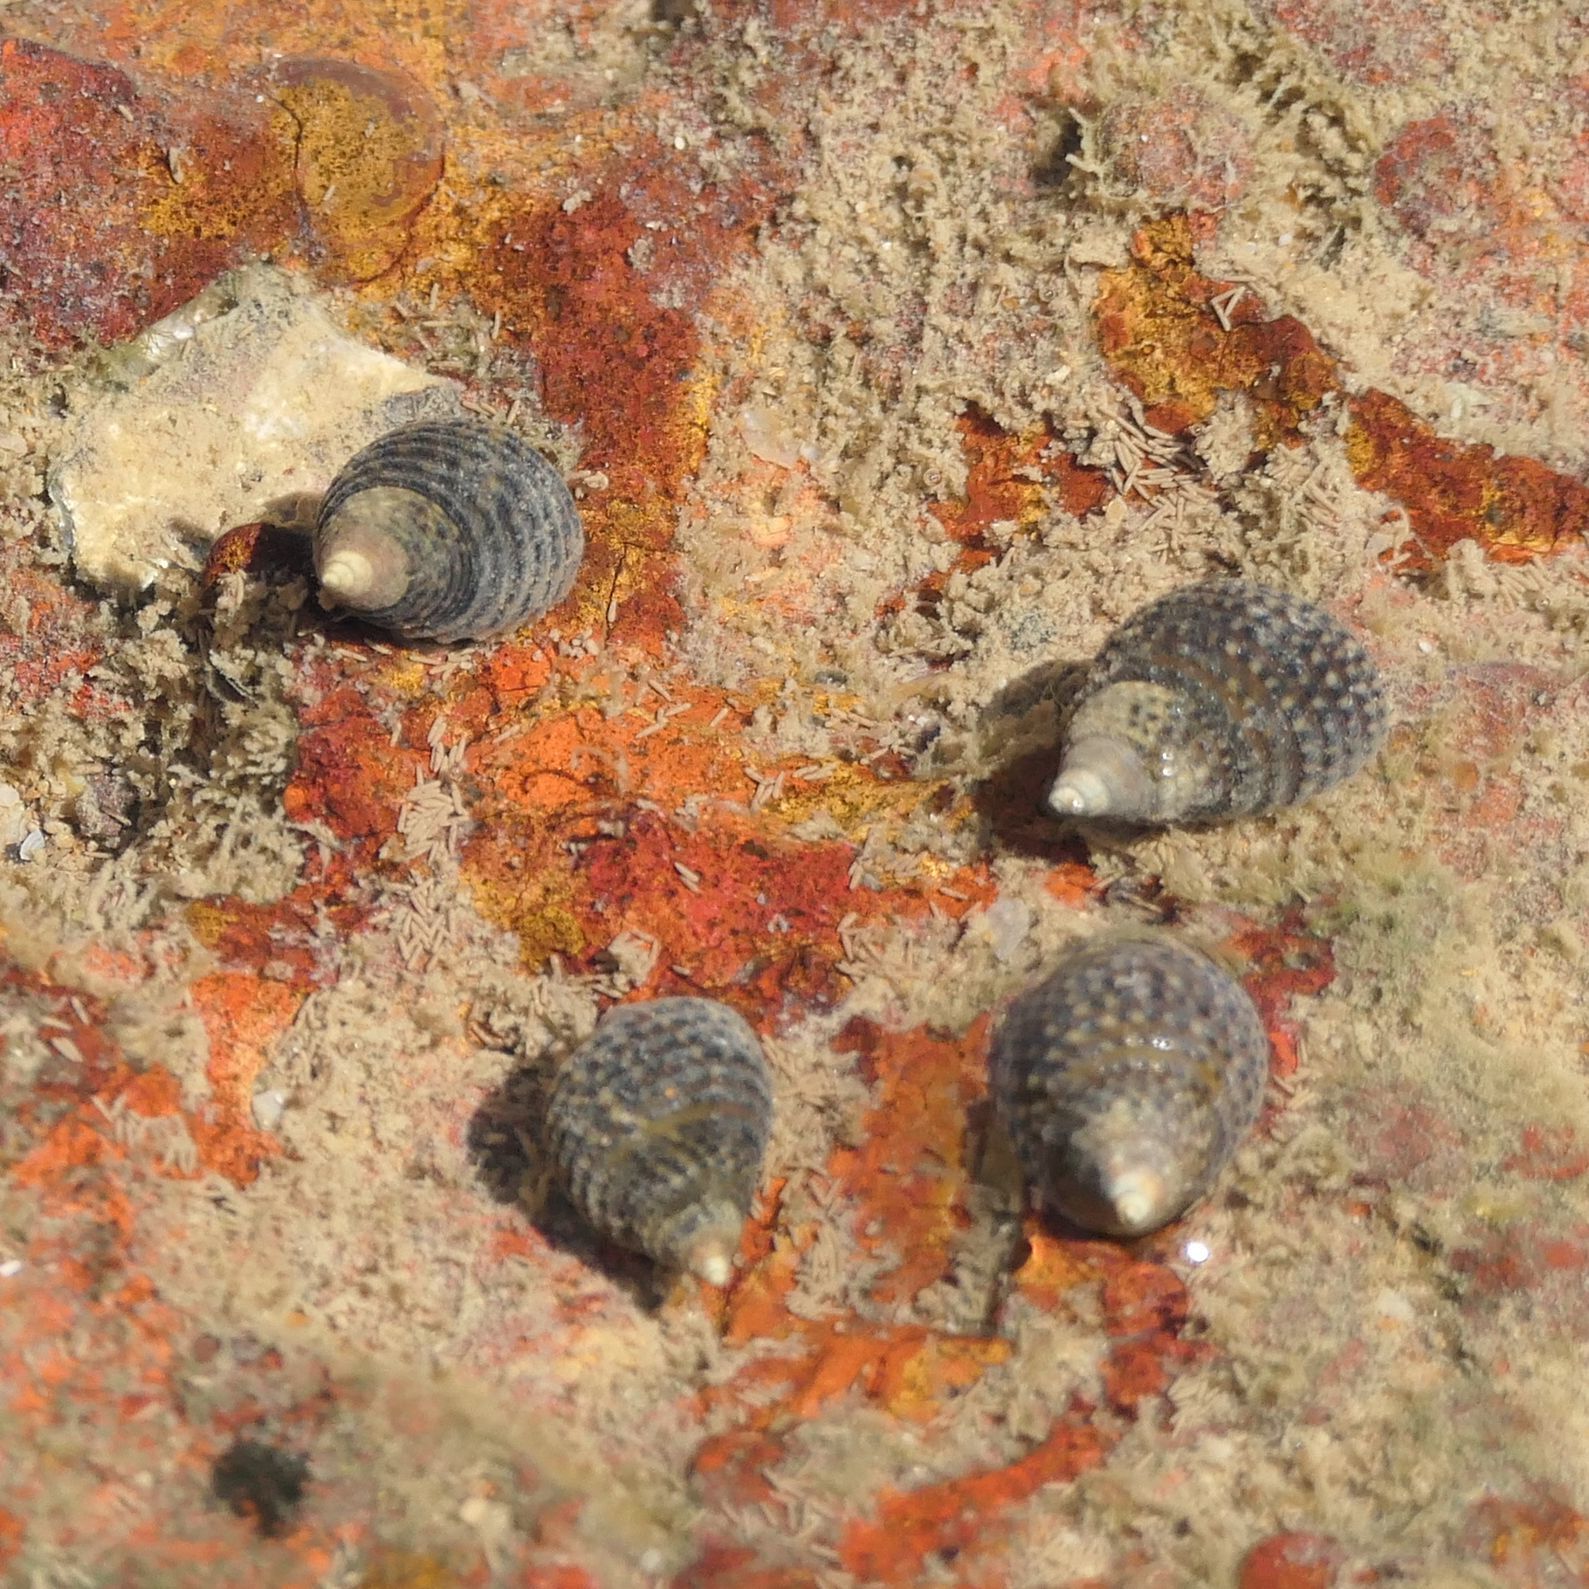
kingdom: Animalia
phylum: Mollusca
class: Gastropoda
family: Planaxidae
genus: Planaxis
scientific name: Planaxis sulcatus
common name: Furrowed planaxis
